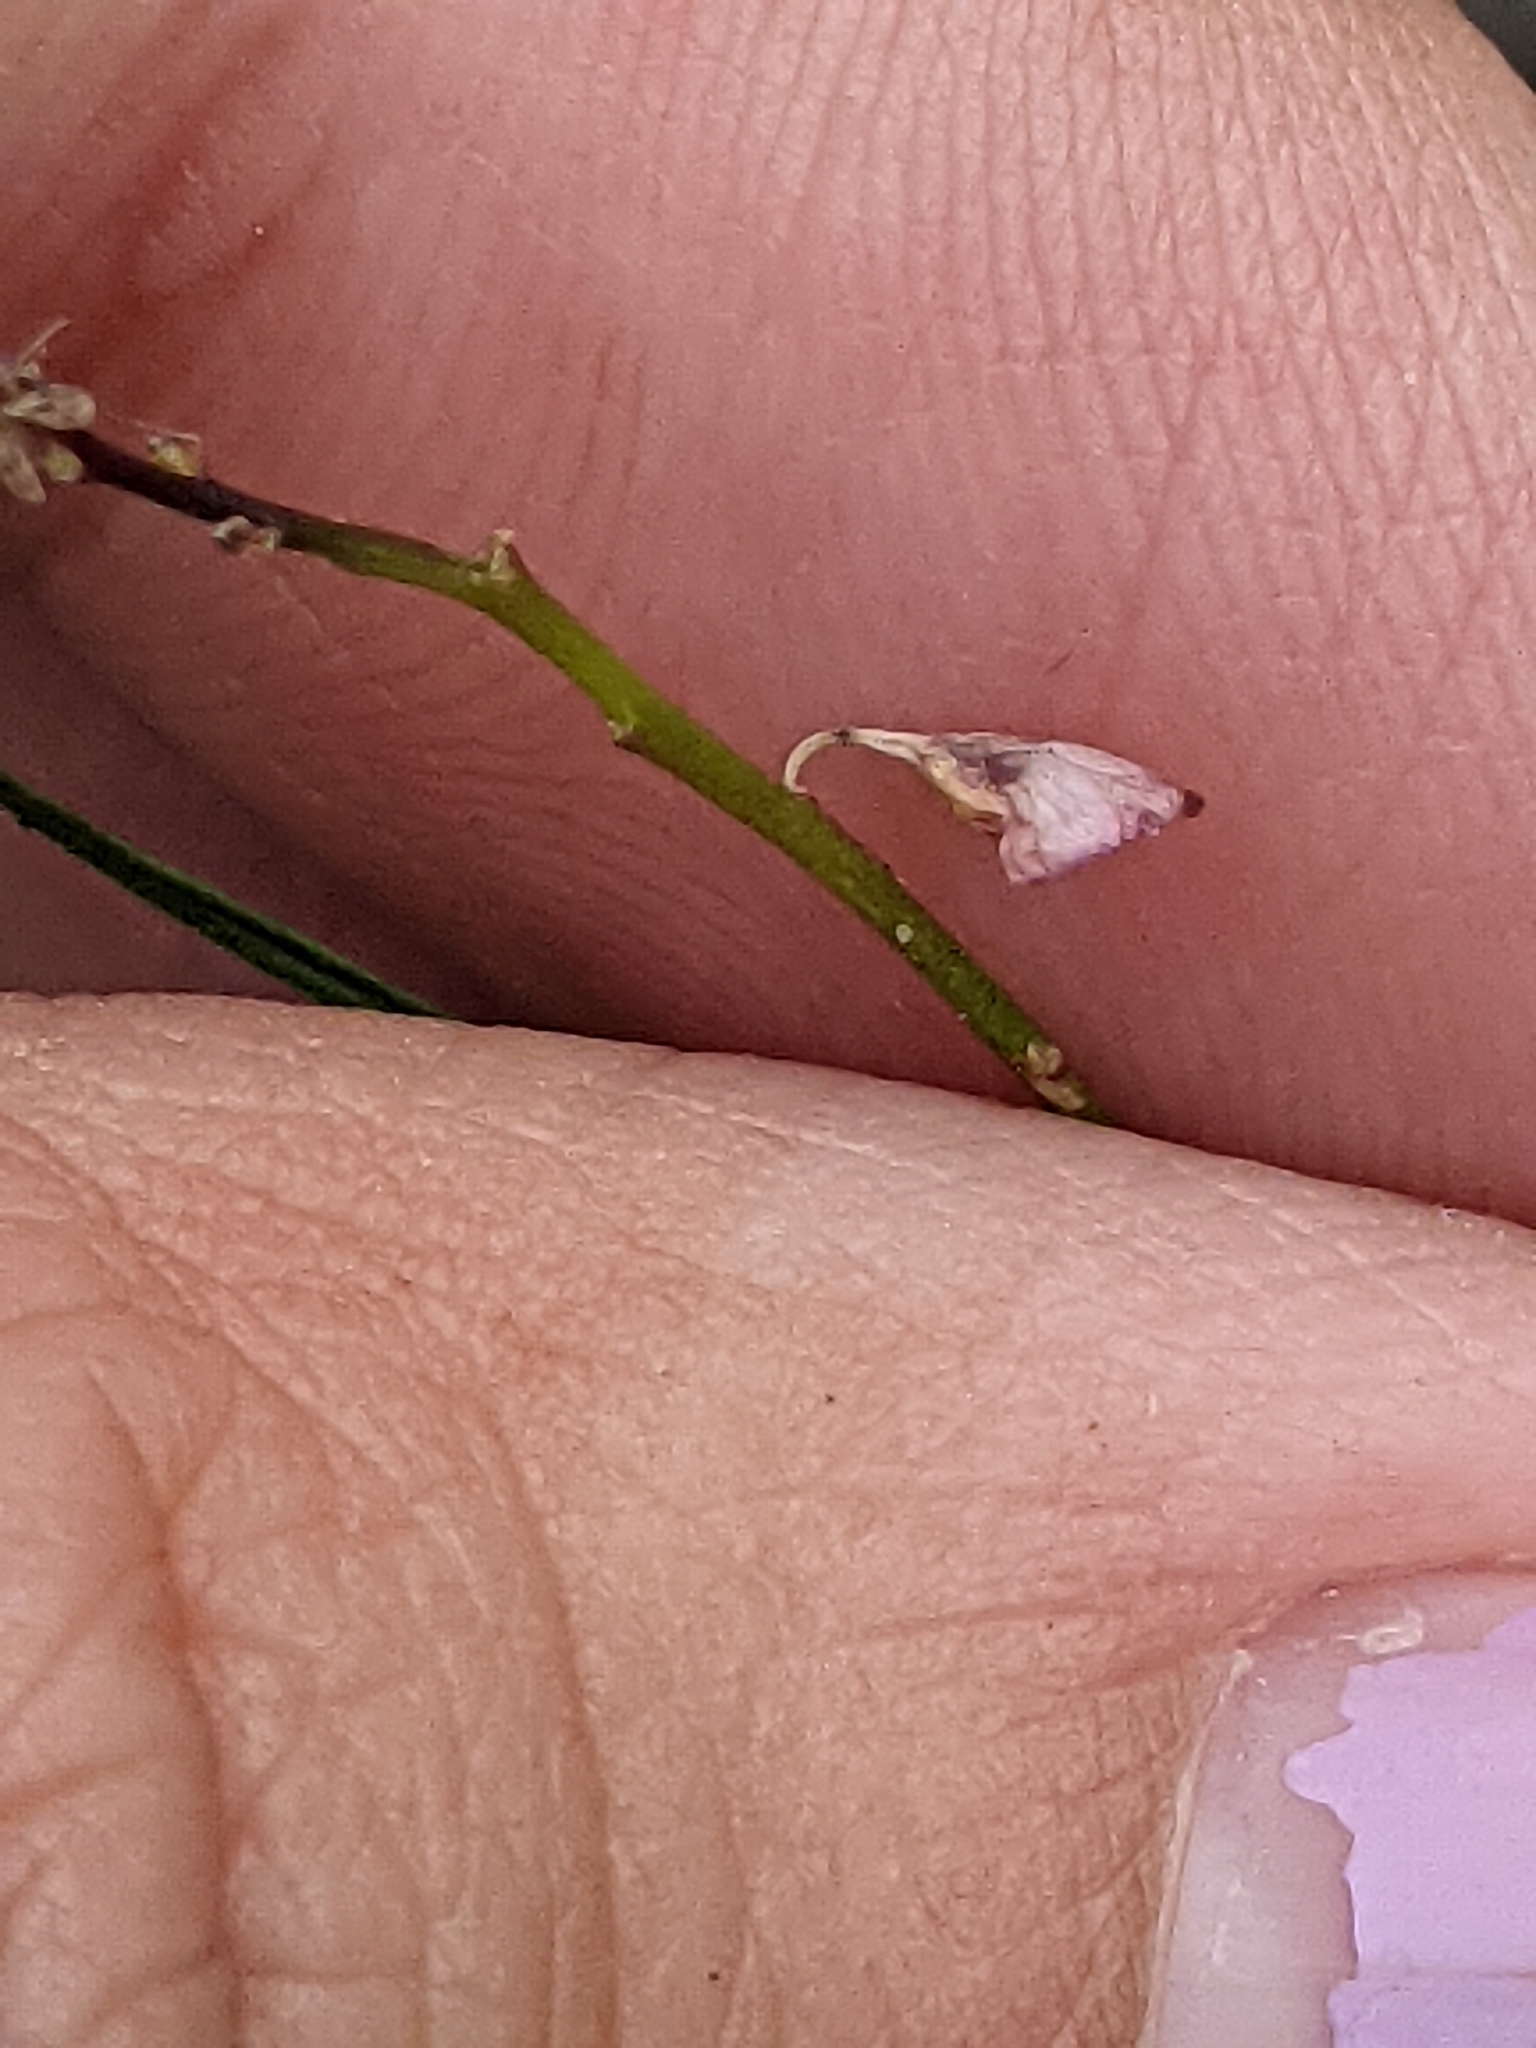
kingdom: Plantae
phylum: Tracheophyta
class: Magnoliopsida
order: Fabales
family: Polygalaceae
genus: Asemeia
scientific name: Asemeia grandiflora
